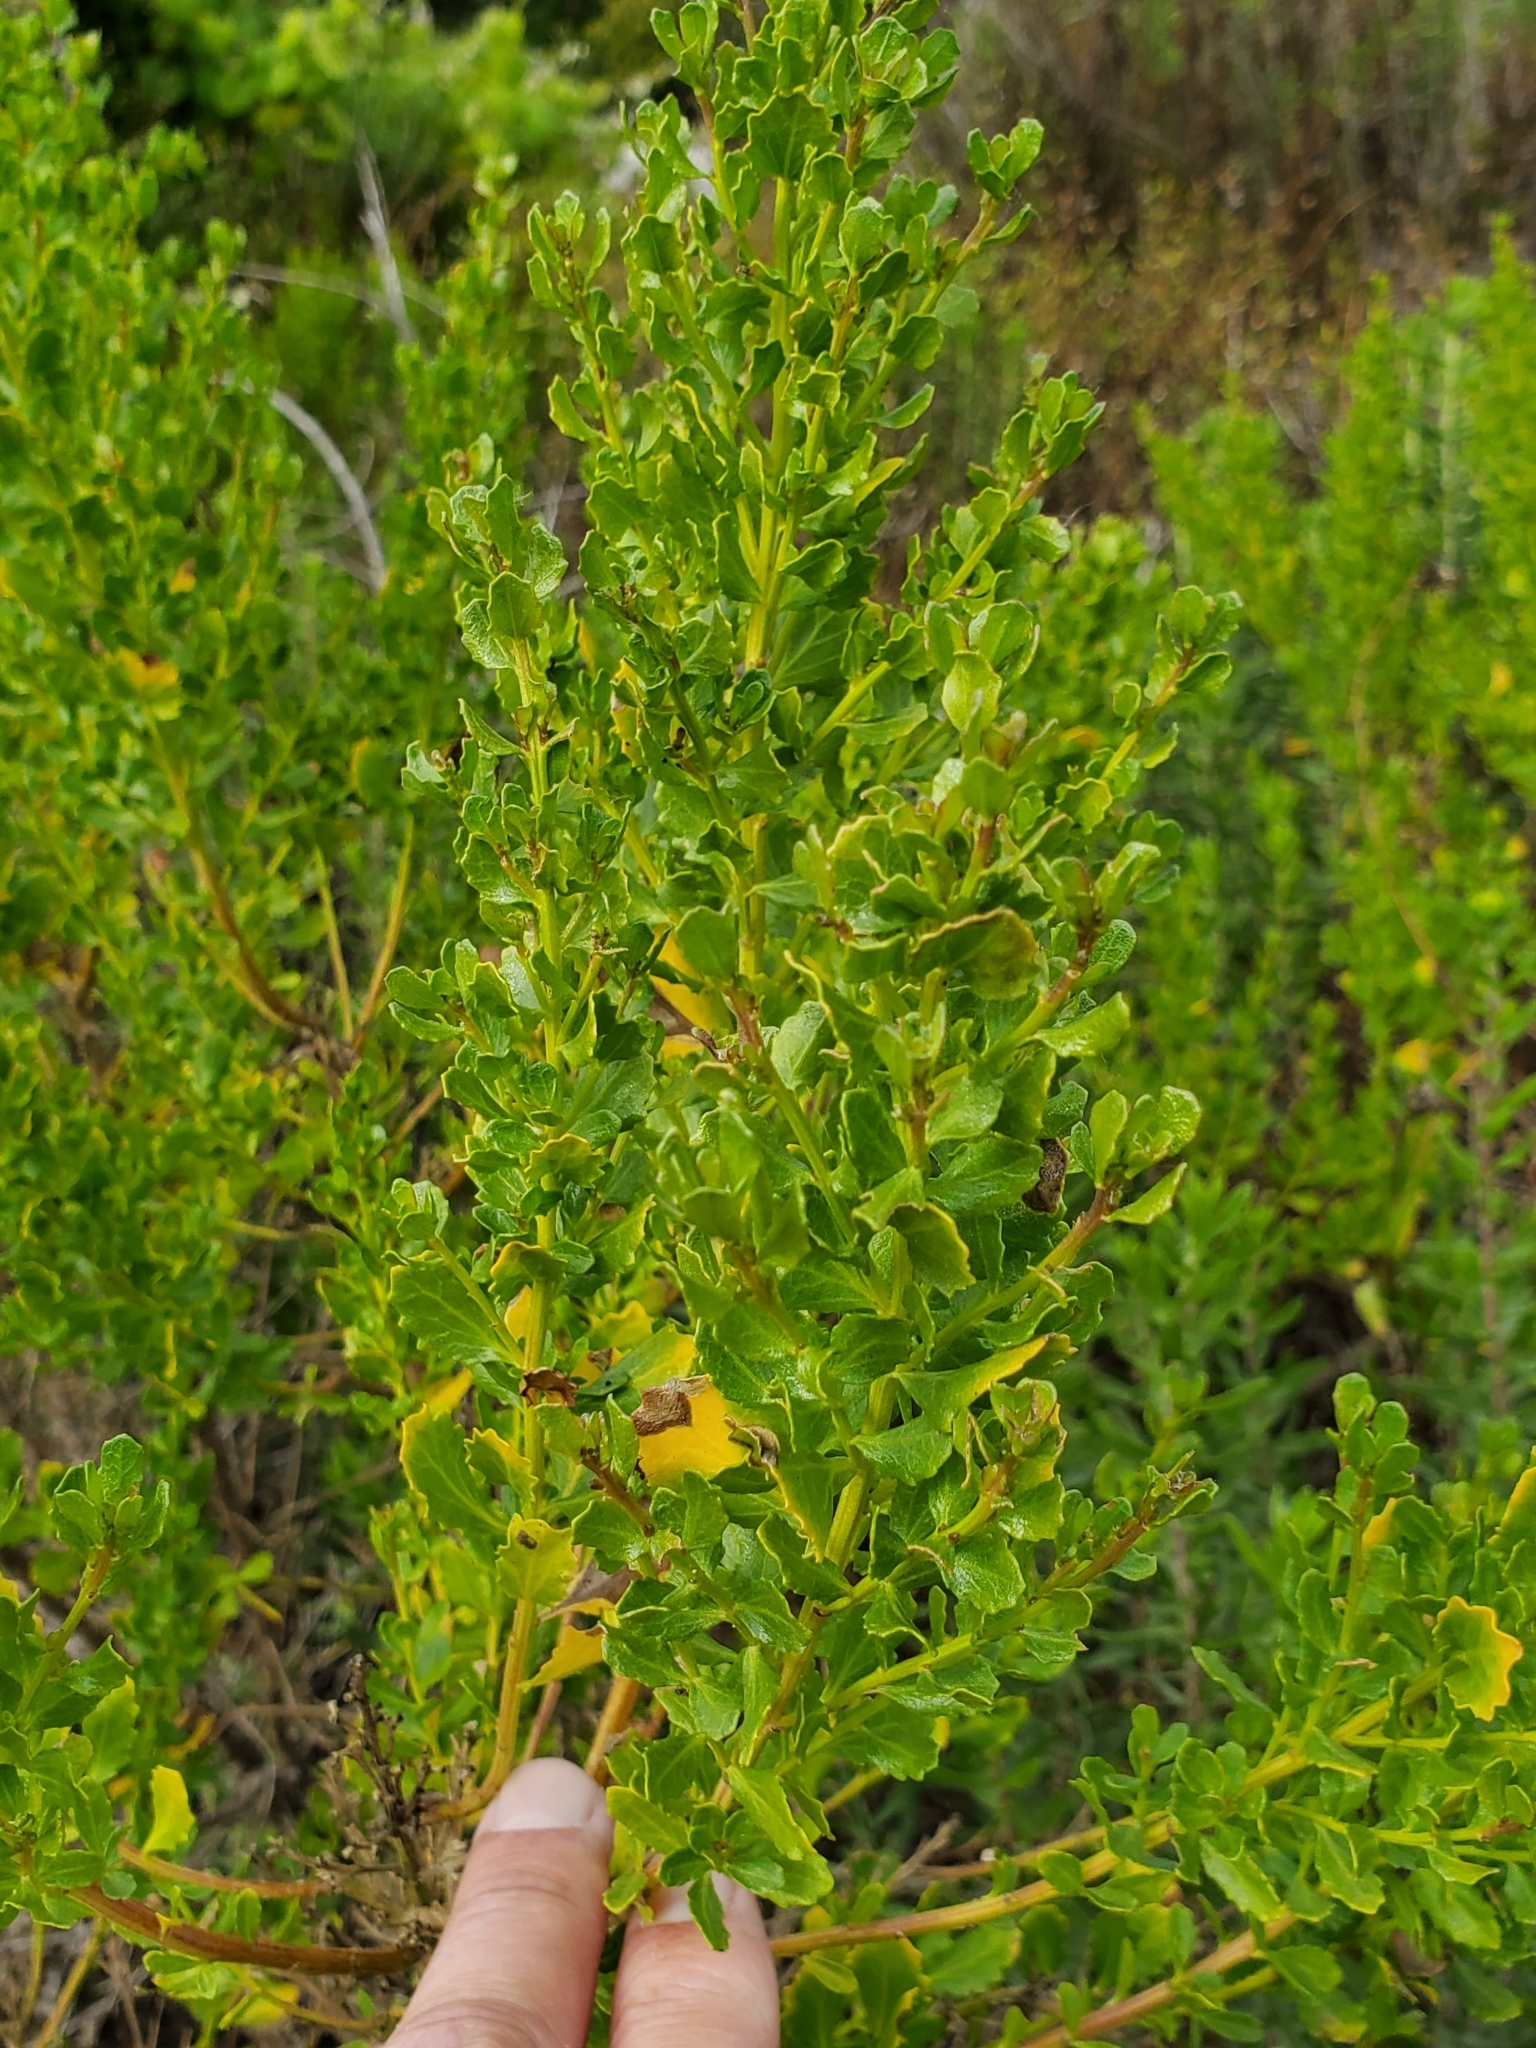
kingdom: Plantae
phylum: Tracheophyta
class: Magnoliopsida
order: Asterales
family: Asteraceae
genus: Baccharis
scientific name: Baccharis pilularis
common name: Coyotebrush
